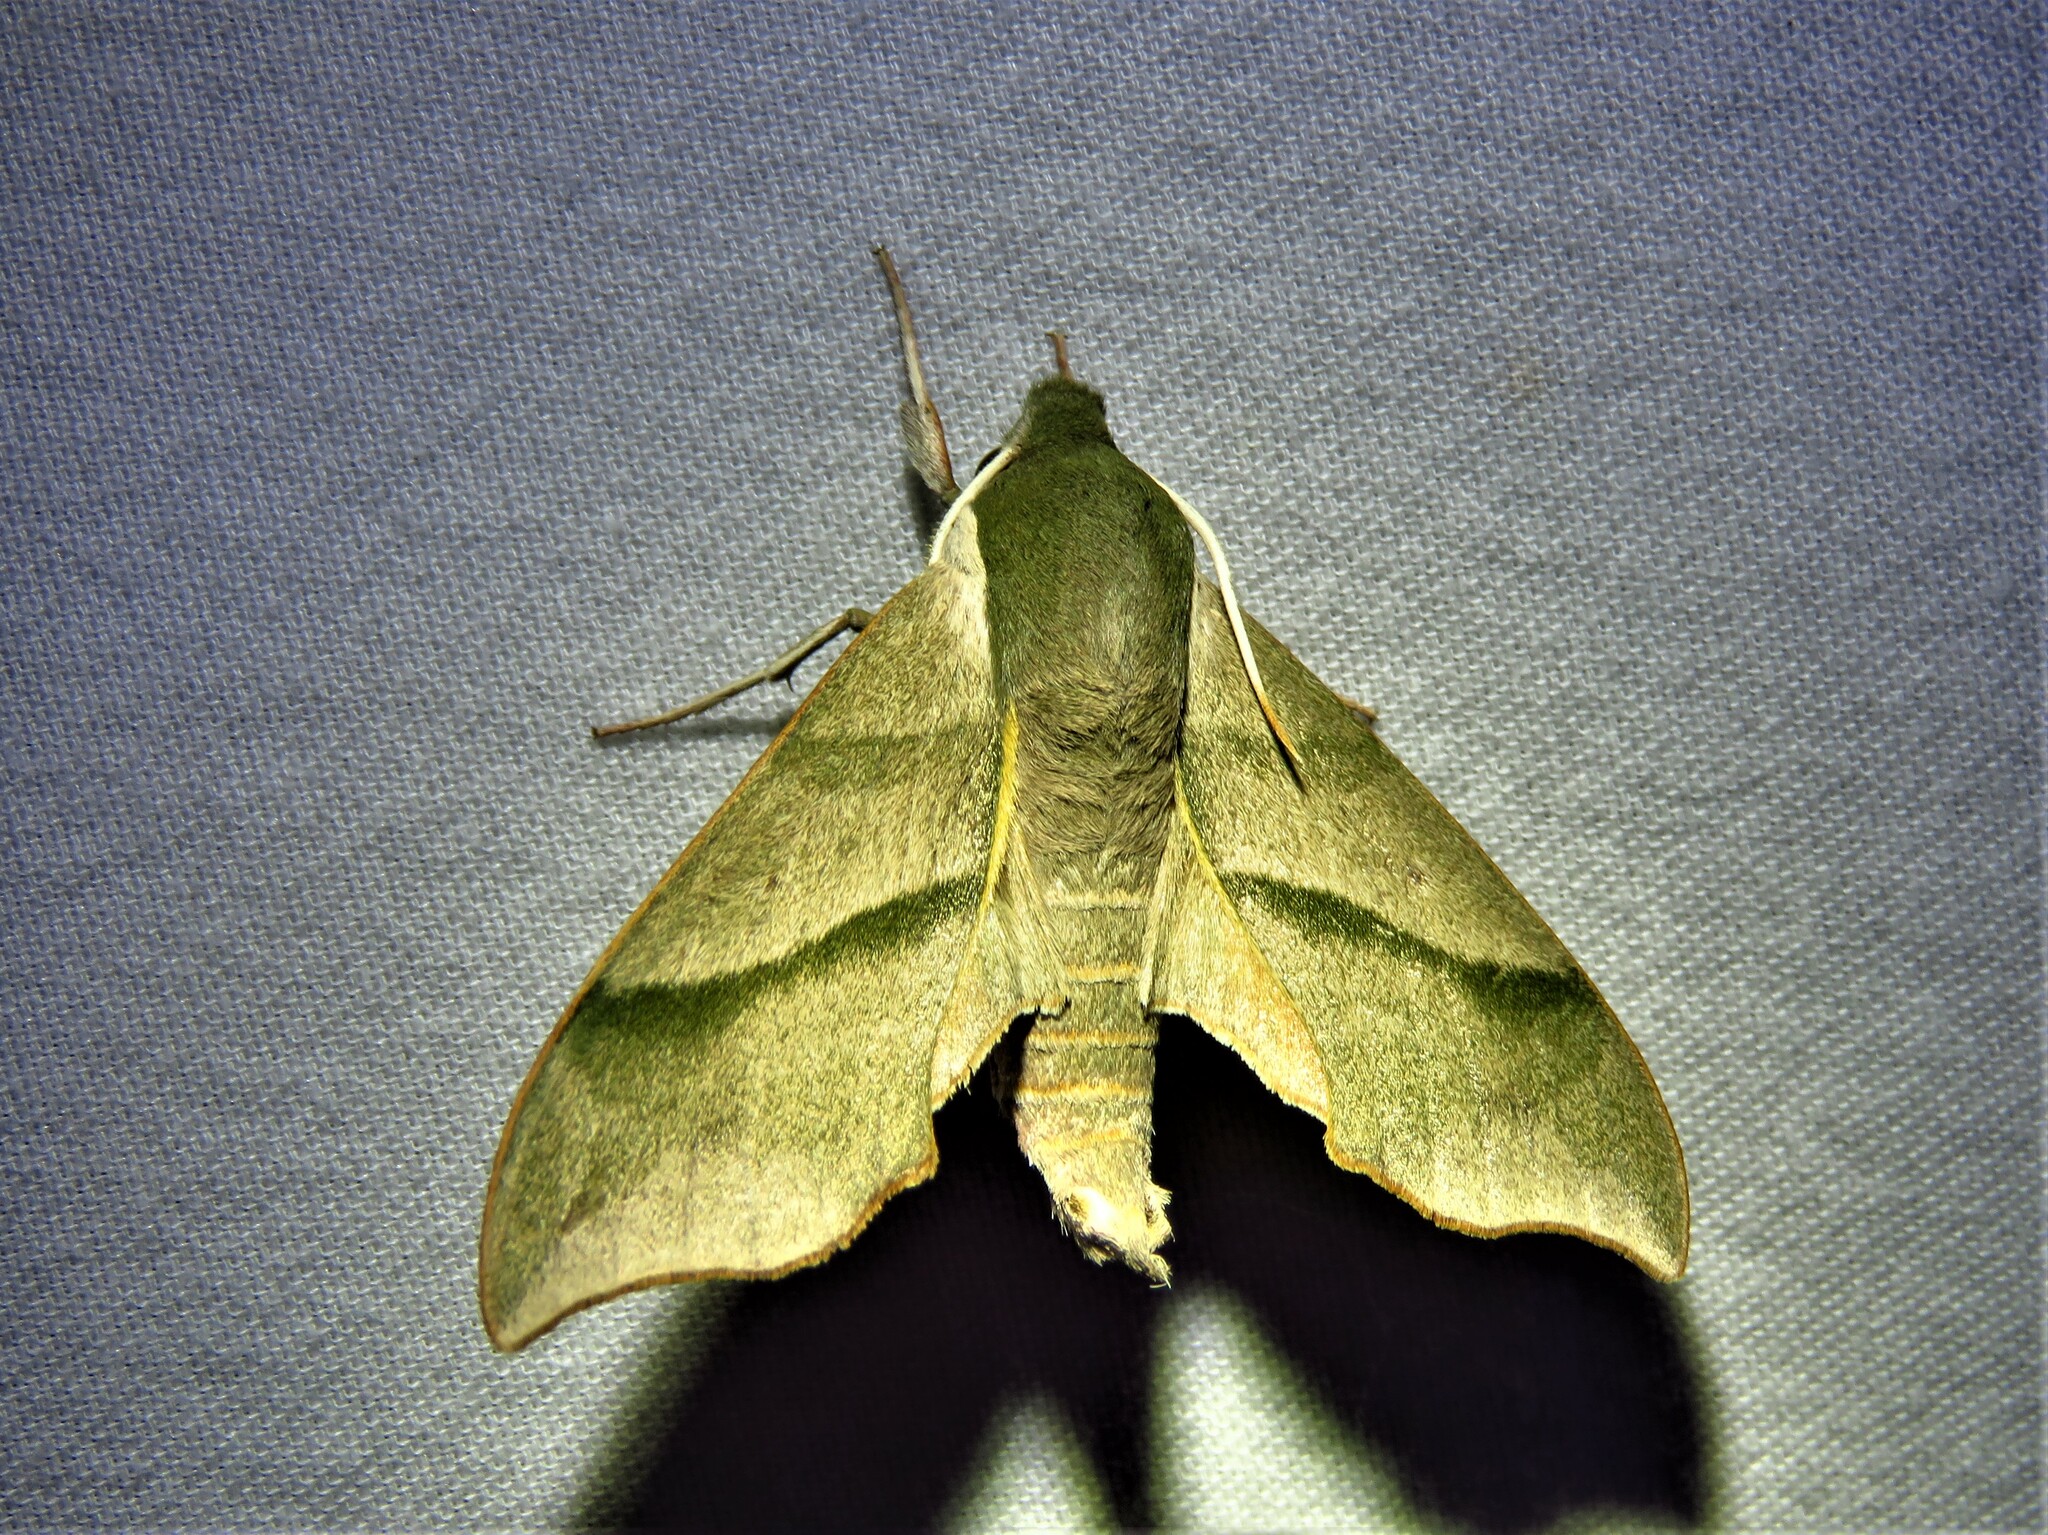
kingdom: Animalia
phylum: Arthropoda
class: Insecta
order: Lepidoptera
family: Sphingidae
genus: Darapsa
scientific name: Darapsa myron
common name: Hog sphinx
